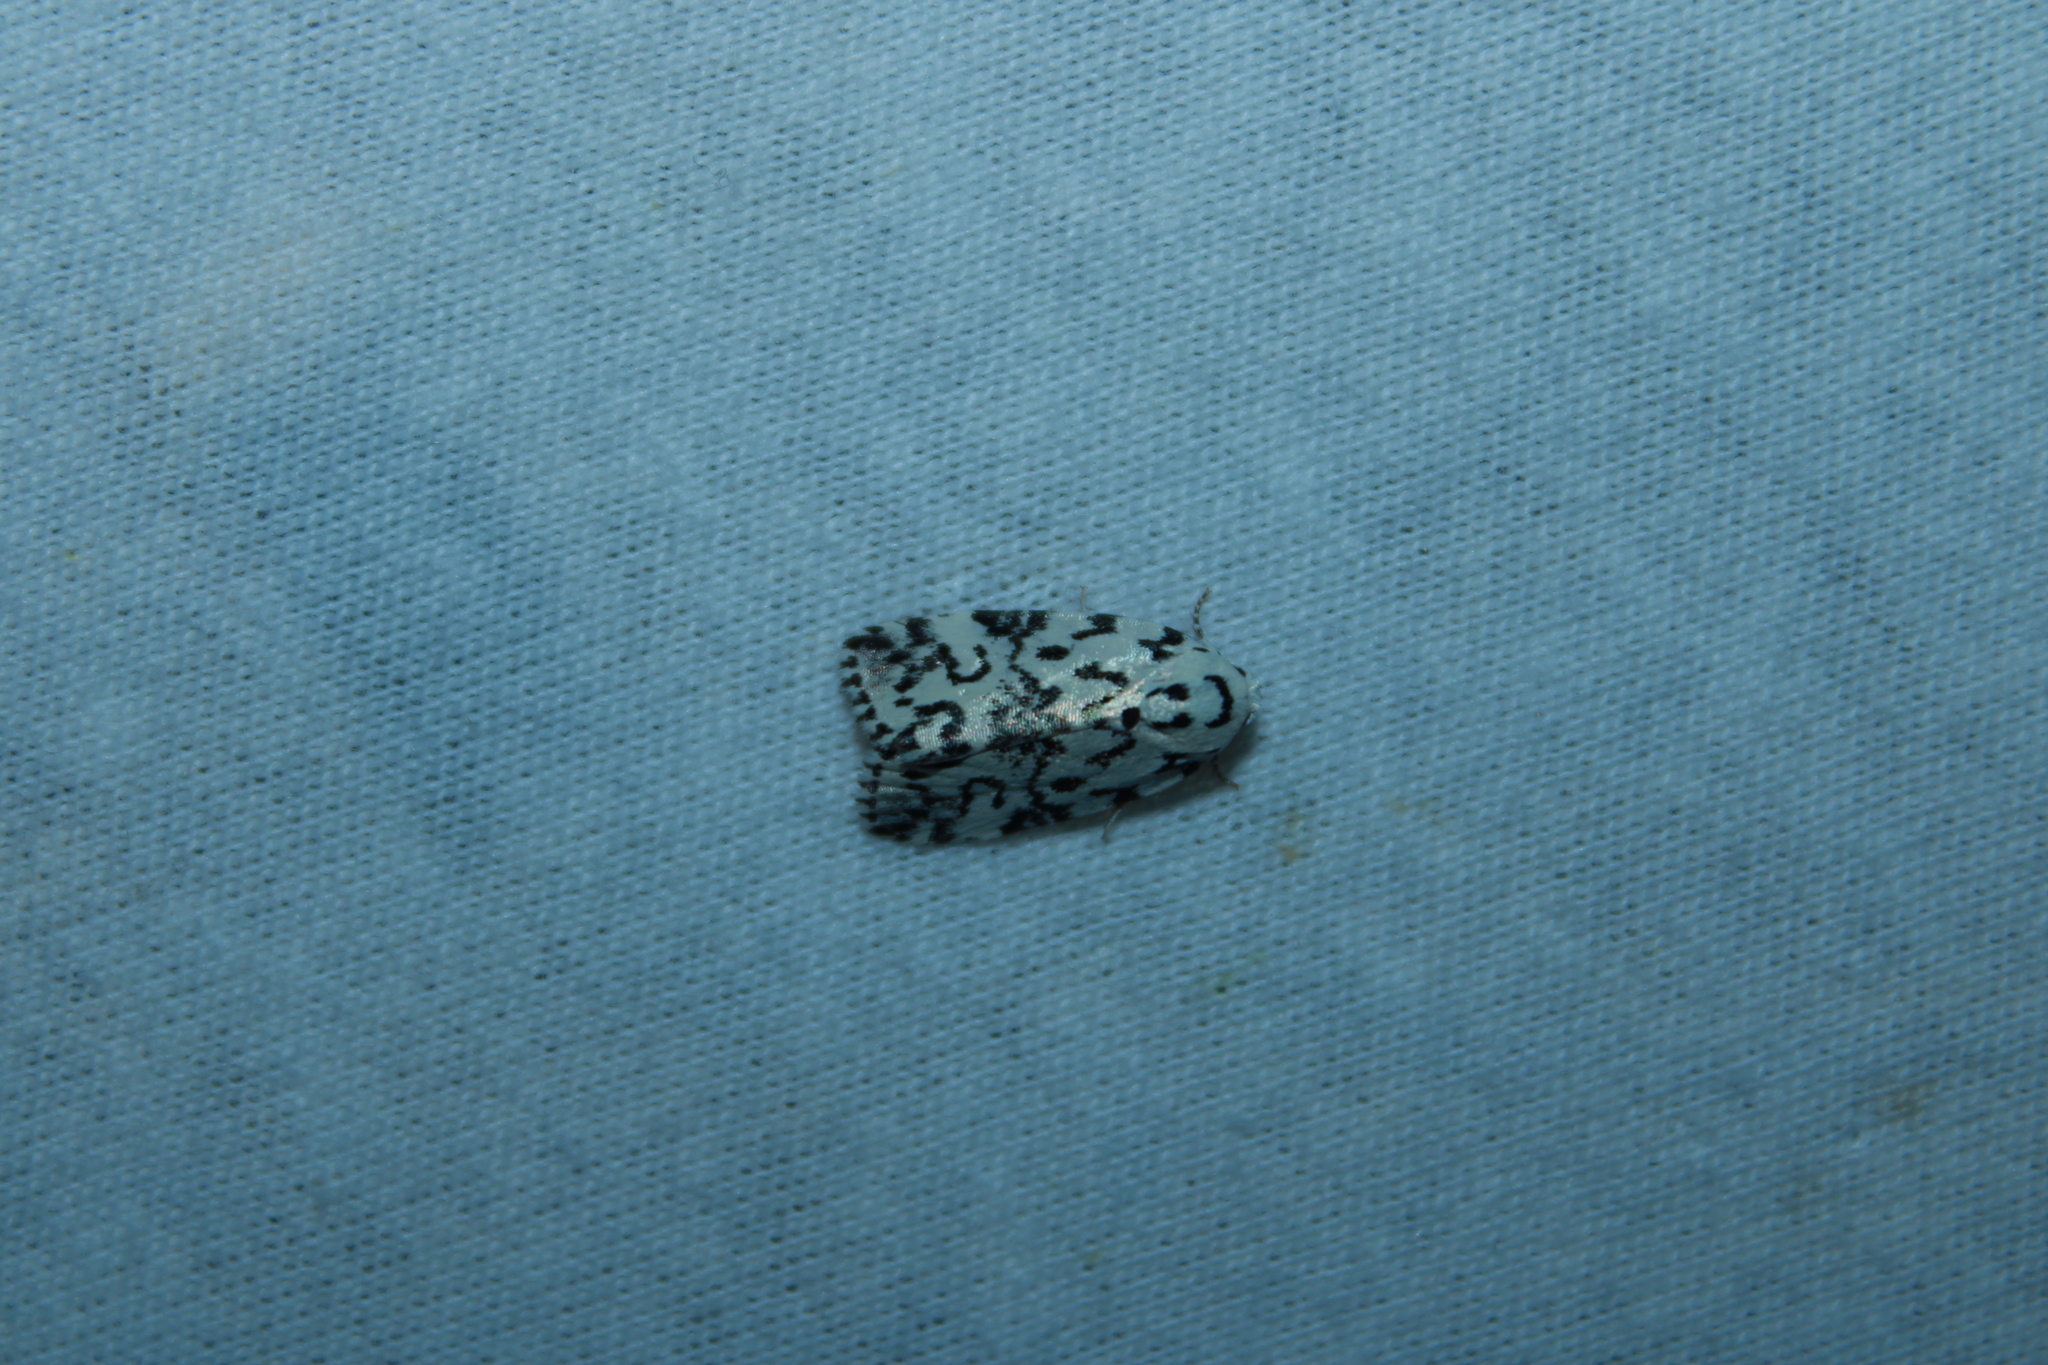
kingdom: Animalia
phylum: Arthropoda
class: Insecta
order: Lepidoptera
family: Noctuidae
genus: Polygrammate
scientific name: Polygrammate hebraeicum
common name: Hebrew moth
